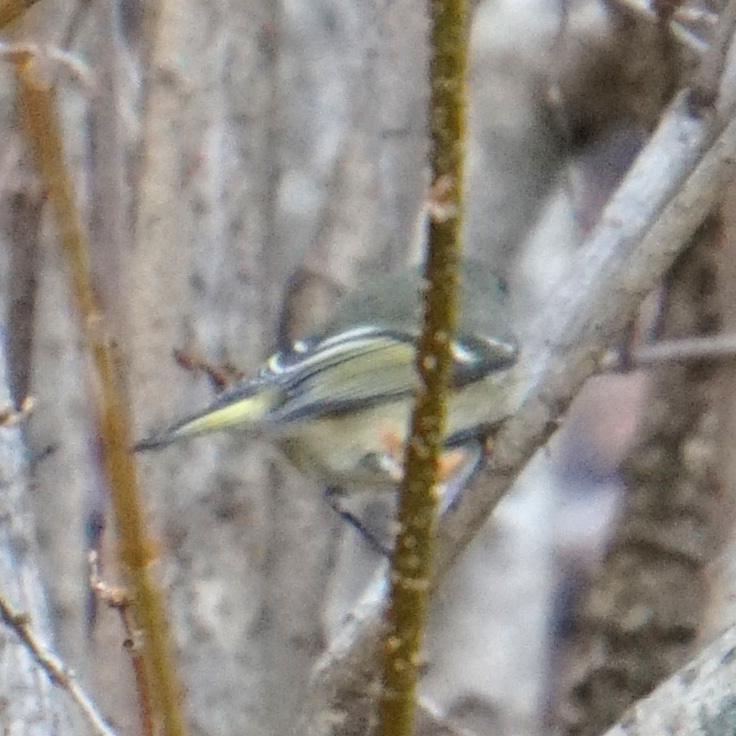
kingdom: Animalia
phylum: Chordata
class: Aves
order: Passeriformes
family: Regulidae
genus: Regulus
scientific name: Regulus calendula
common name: Ruby-crowned kinglet
